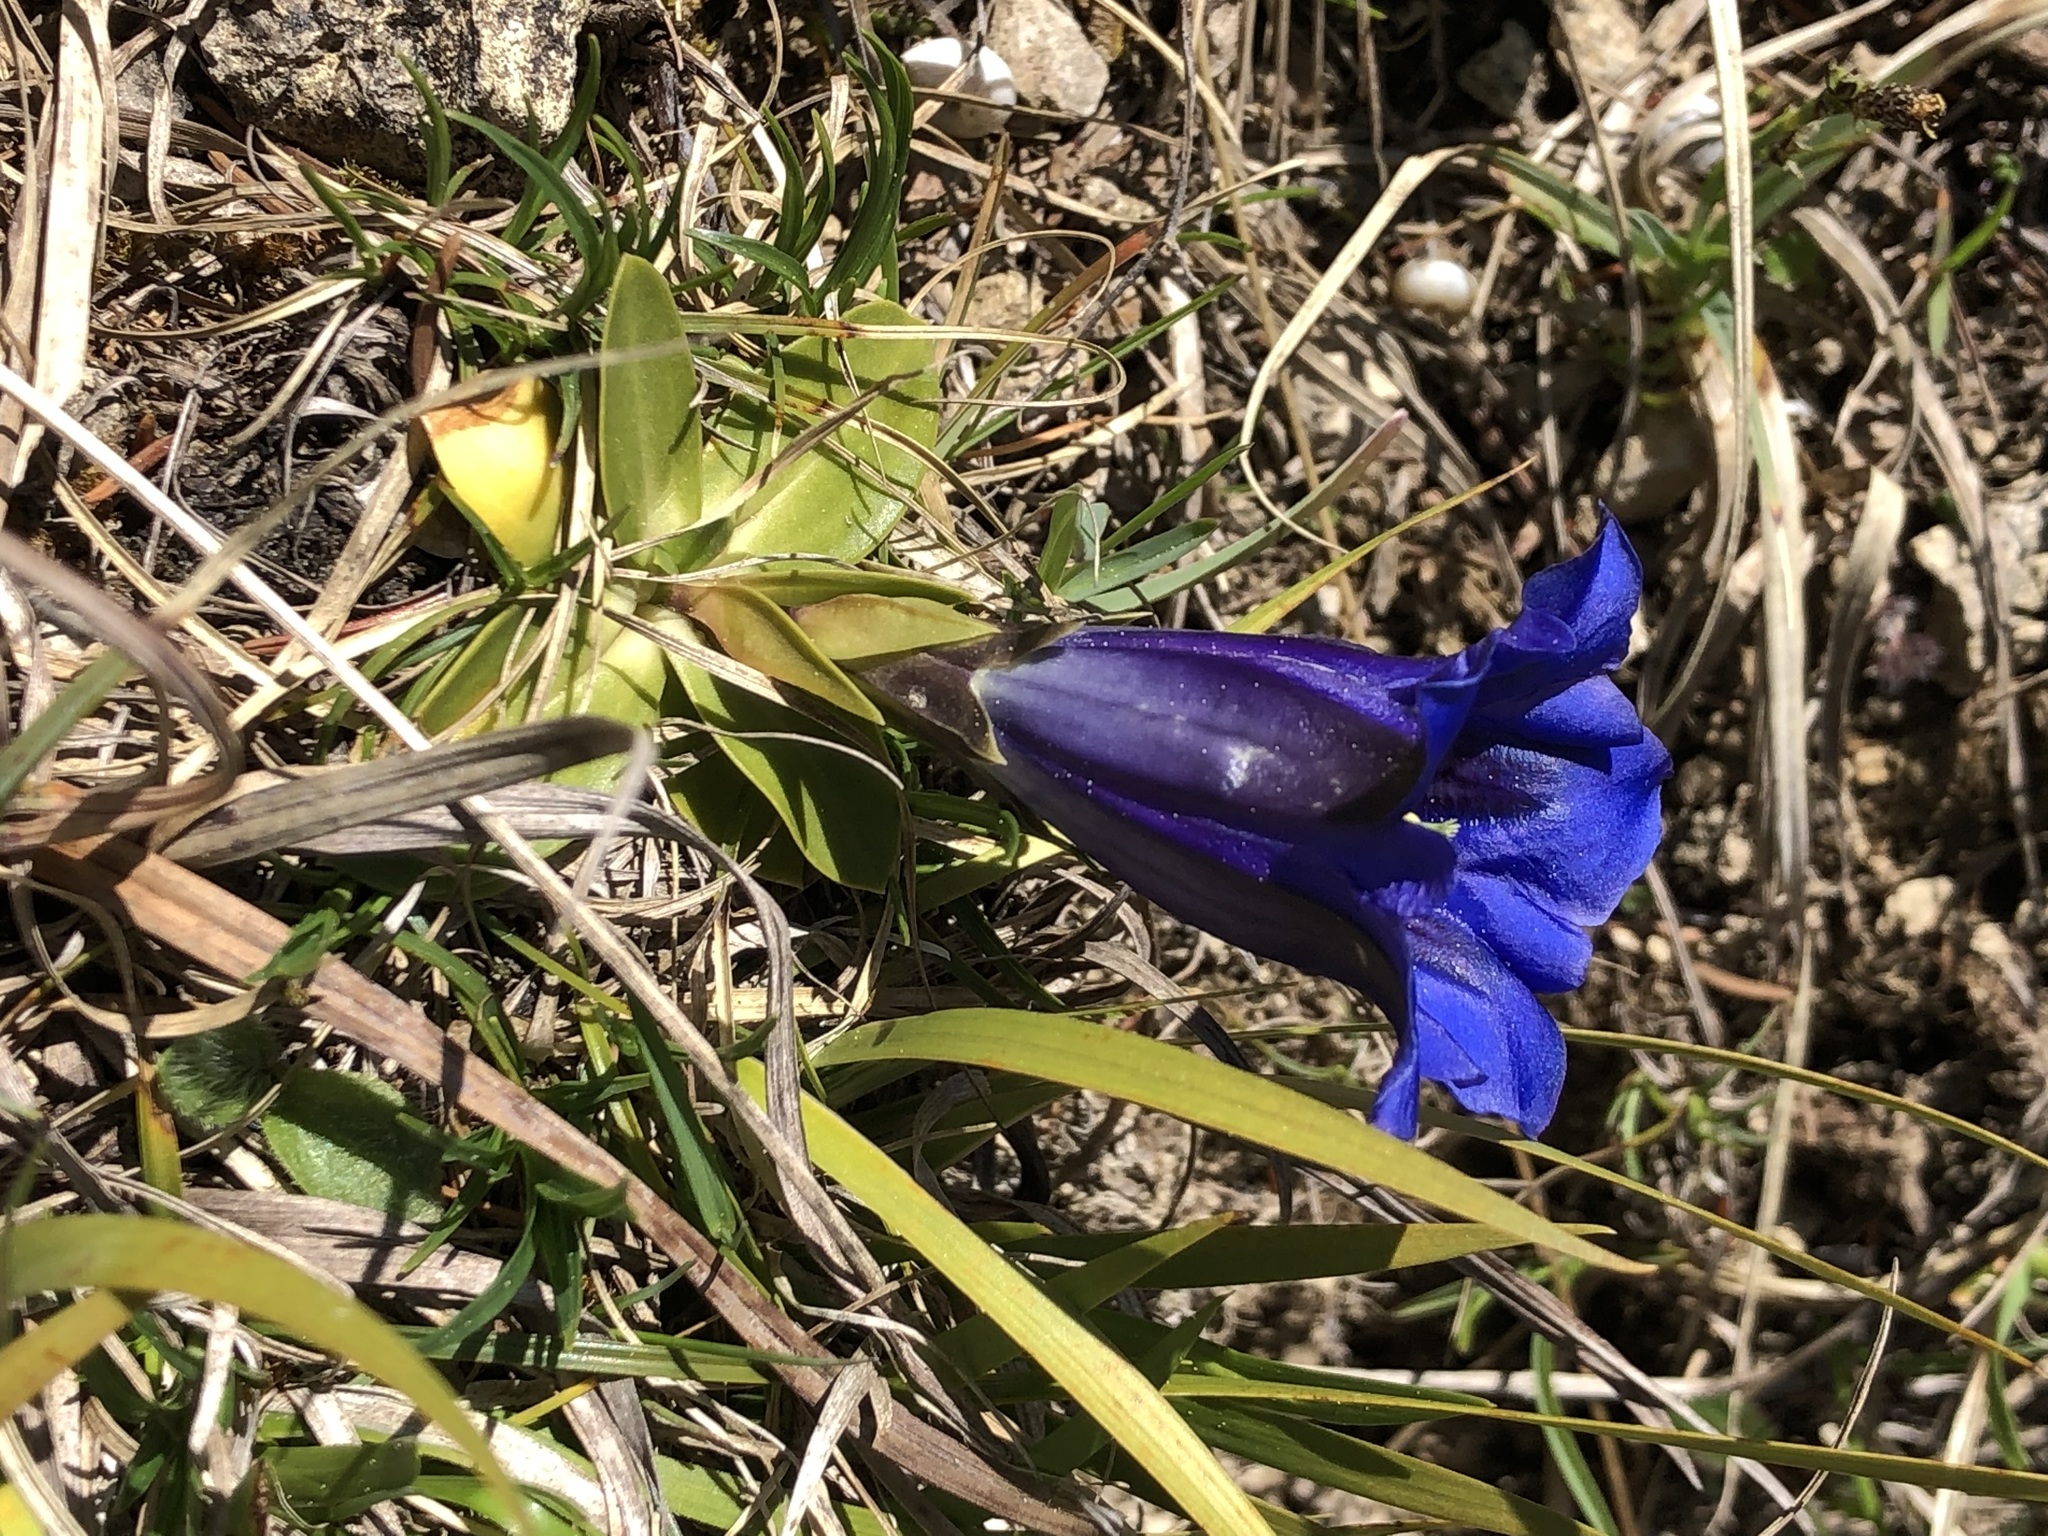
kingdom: Plantae
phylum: Tracheophyta
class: Magnoliopsida
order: Gentianales
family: Gentianaceae
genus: Gentiana
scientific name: Gentiana clusii
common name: Trumpet gentian
